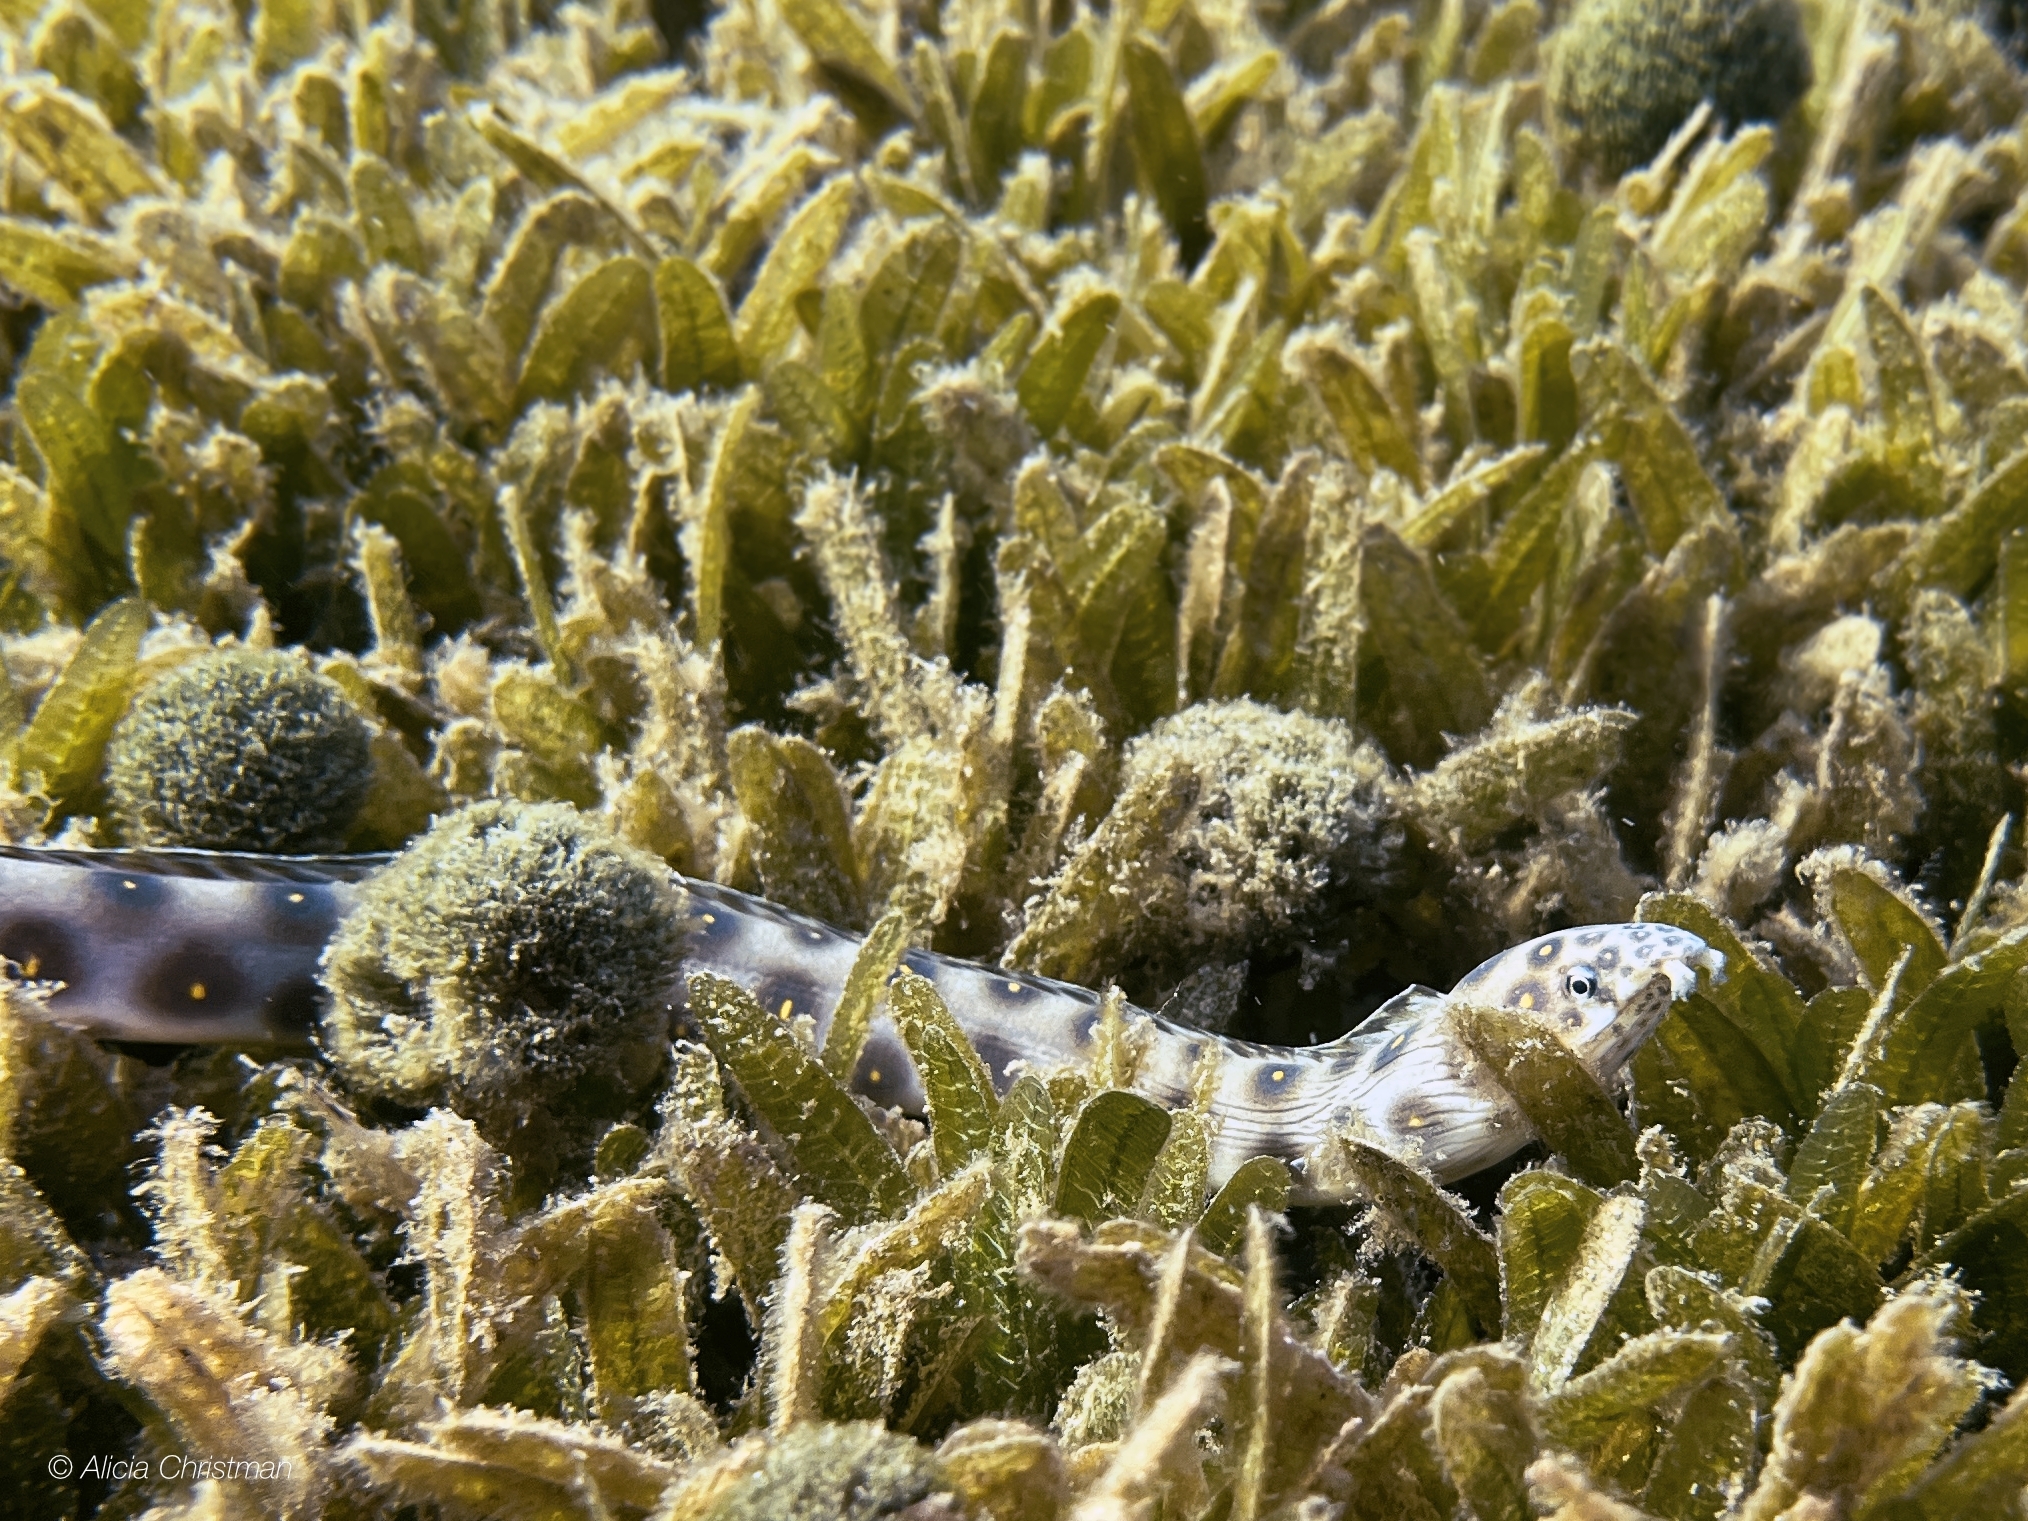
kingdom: Animalia
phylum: Chordata
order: Anguilliformes
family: Ophichthidae
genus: Myrichthys
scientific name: Myrichthys ocellatus
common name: Goldspotted eel
